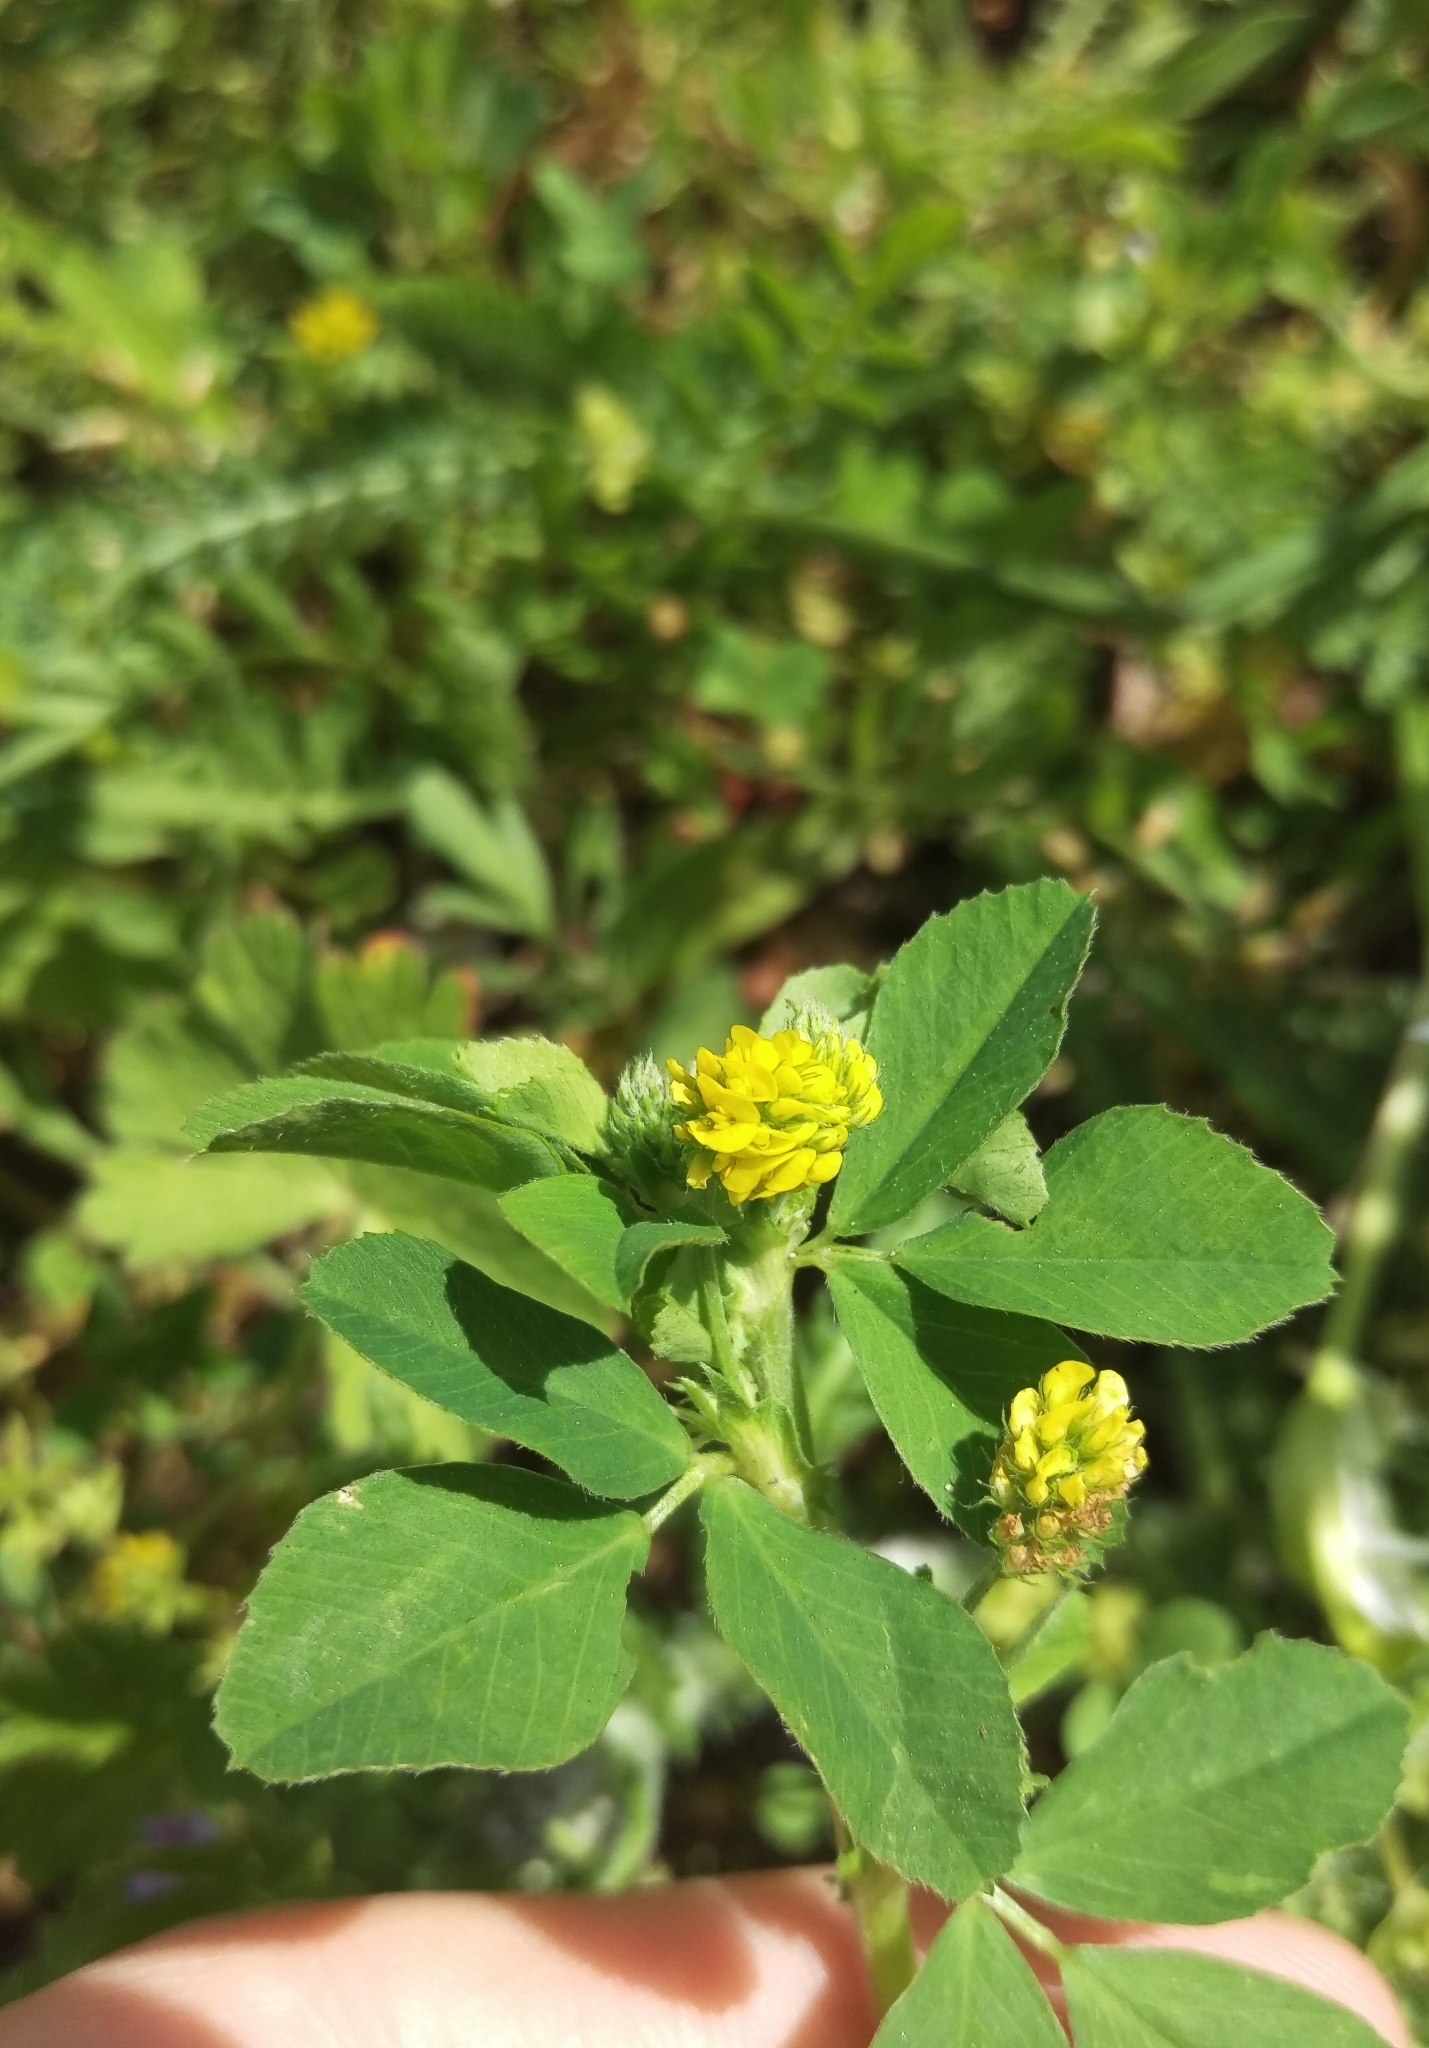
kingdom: Plantae
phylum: Tracheophyta
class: Magnoliopsida
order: Fabales
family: Fabaceae
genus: Medicago
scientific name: Medicago lupulina
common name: Black medick
